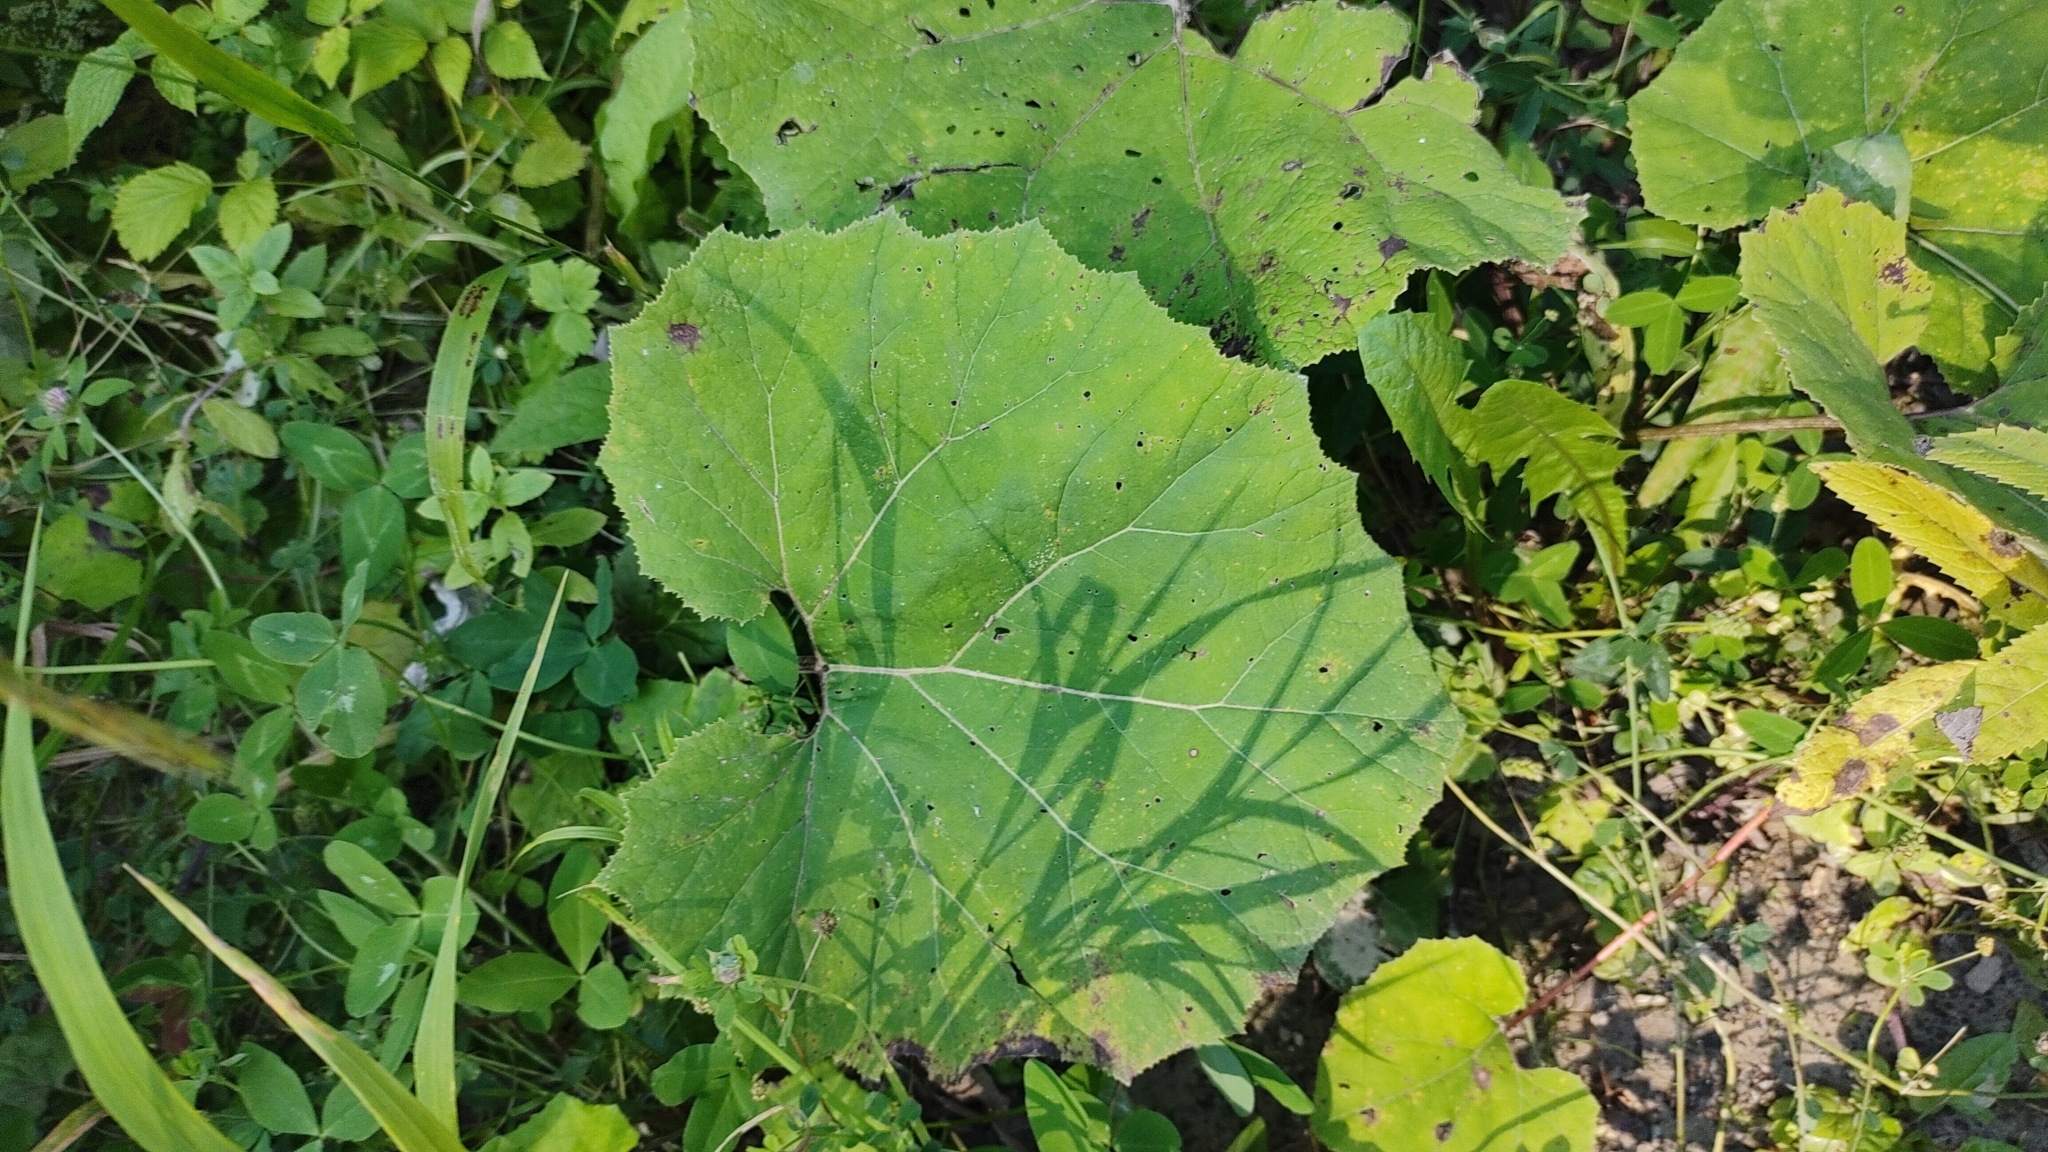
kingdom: Plantae
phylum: Tracheophyta
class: Magnoliopsida
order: Asterales
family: Asteraceae
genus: Tussilago
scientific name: Tussilago farfara
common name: Coltsfoot
